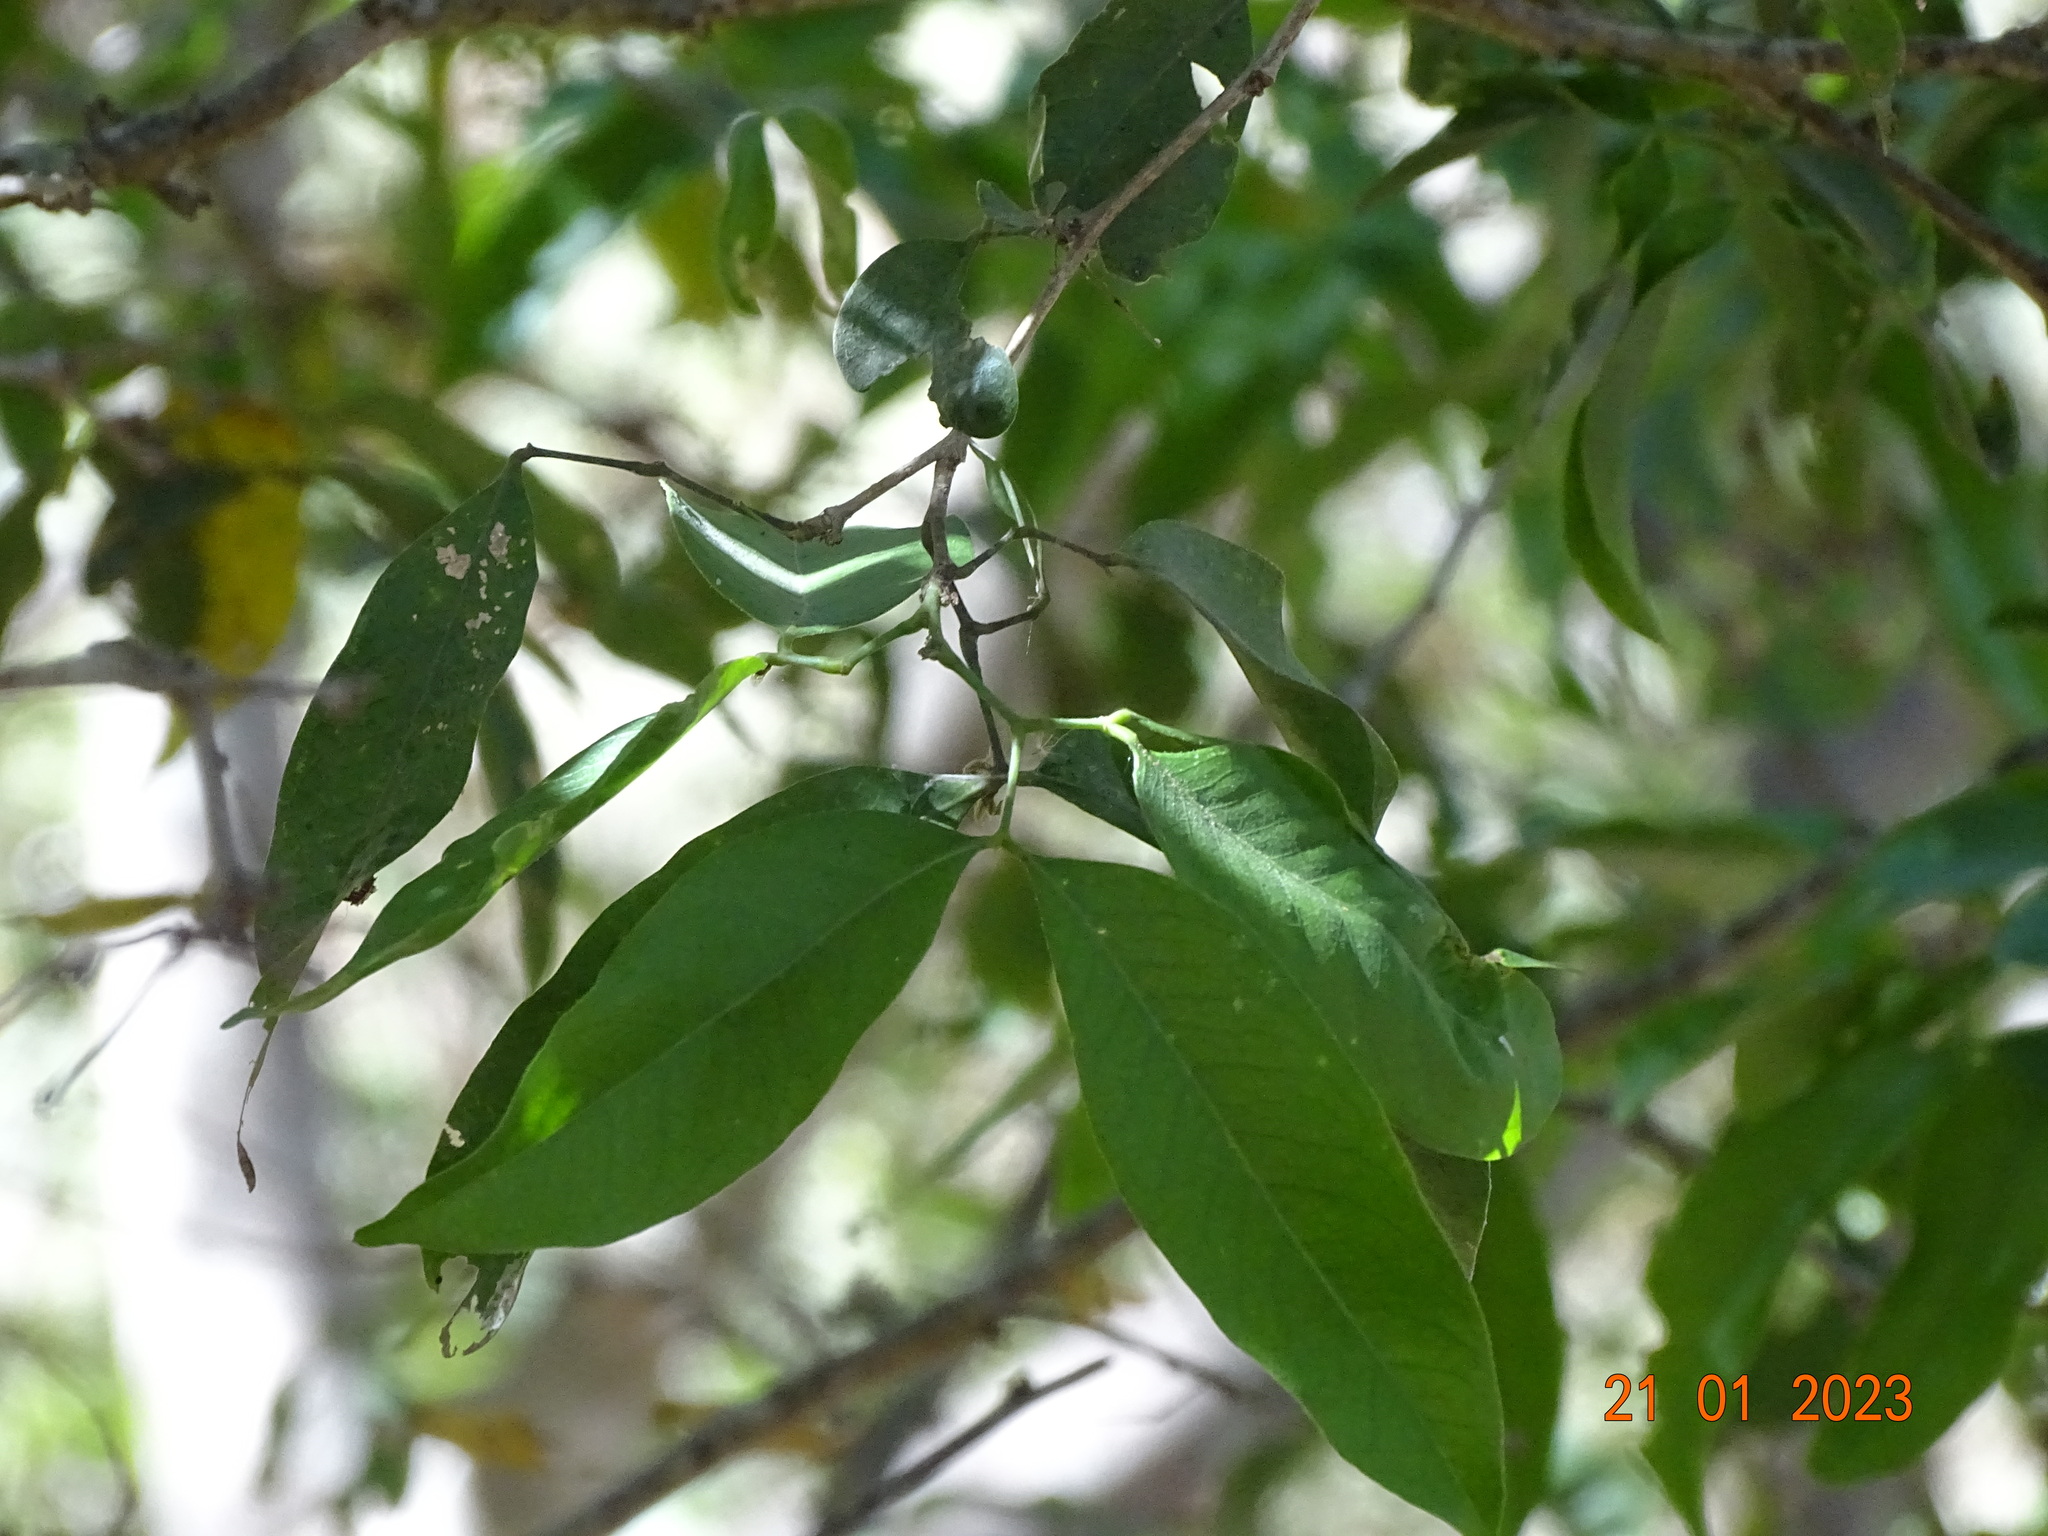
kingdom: Plantae
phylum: Tracheophyta
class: Magnoliopsida
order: Fabales
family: Fabaceae
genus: Calliandra
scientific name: Calliandra laevis
